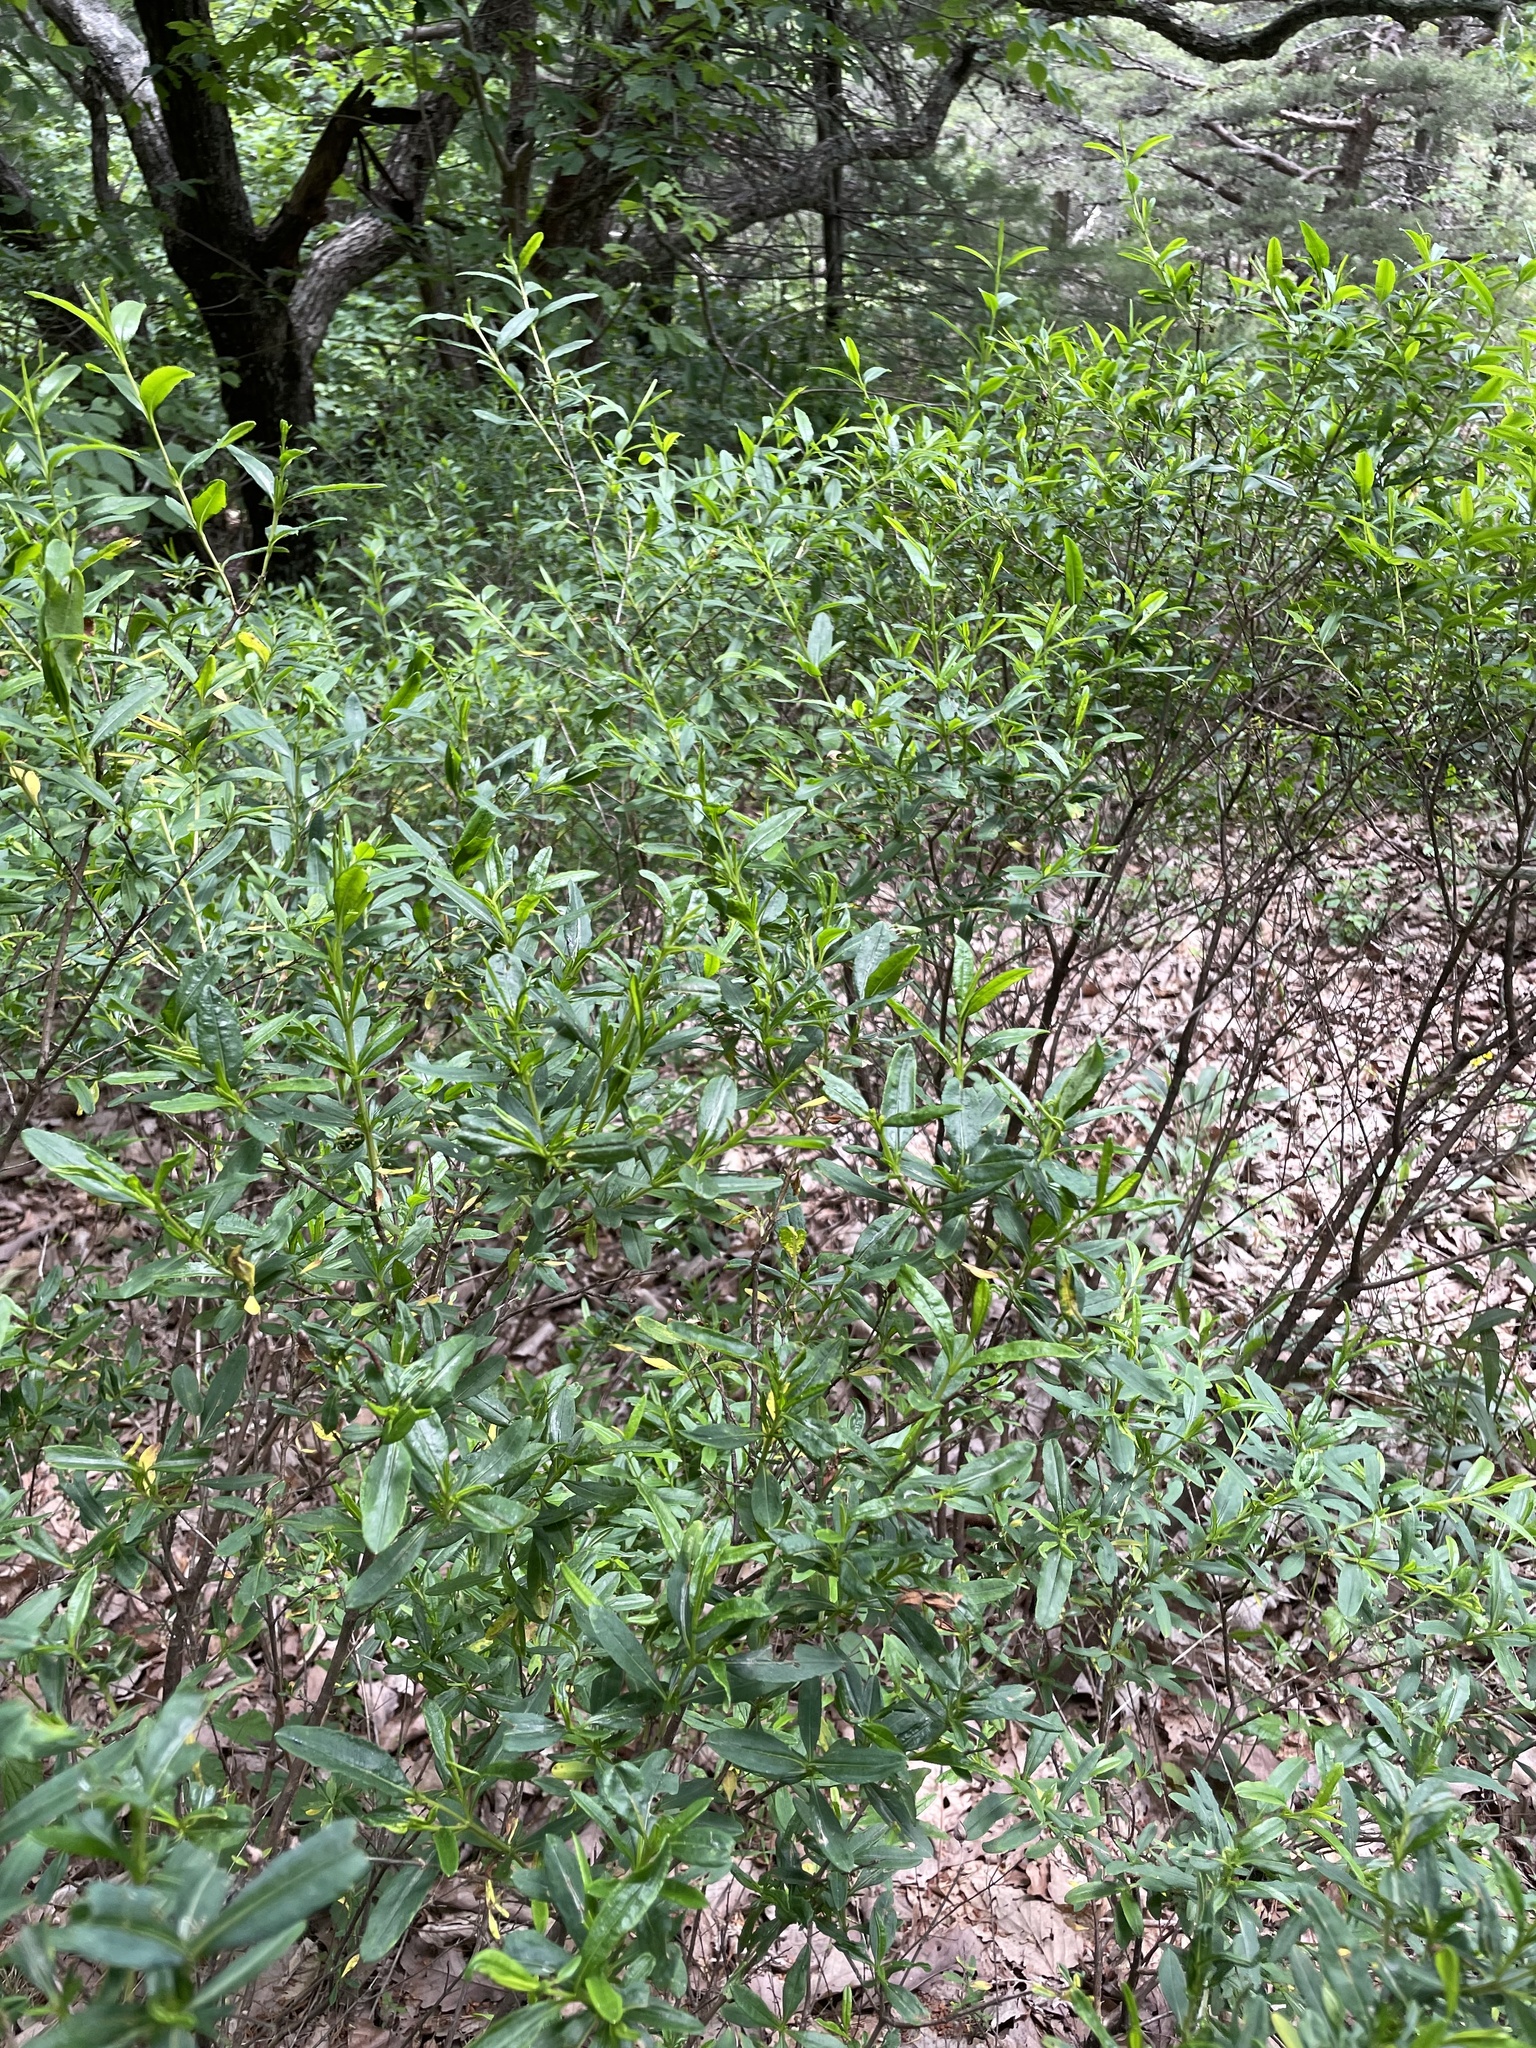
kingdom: Plantae
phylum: Tracheophyta
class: Magnoliopsida
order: Malpighiales
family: Hypericaceae
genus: Hypericum
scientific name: Hypericum prolificum
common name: Shrubby st. john's-wort
